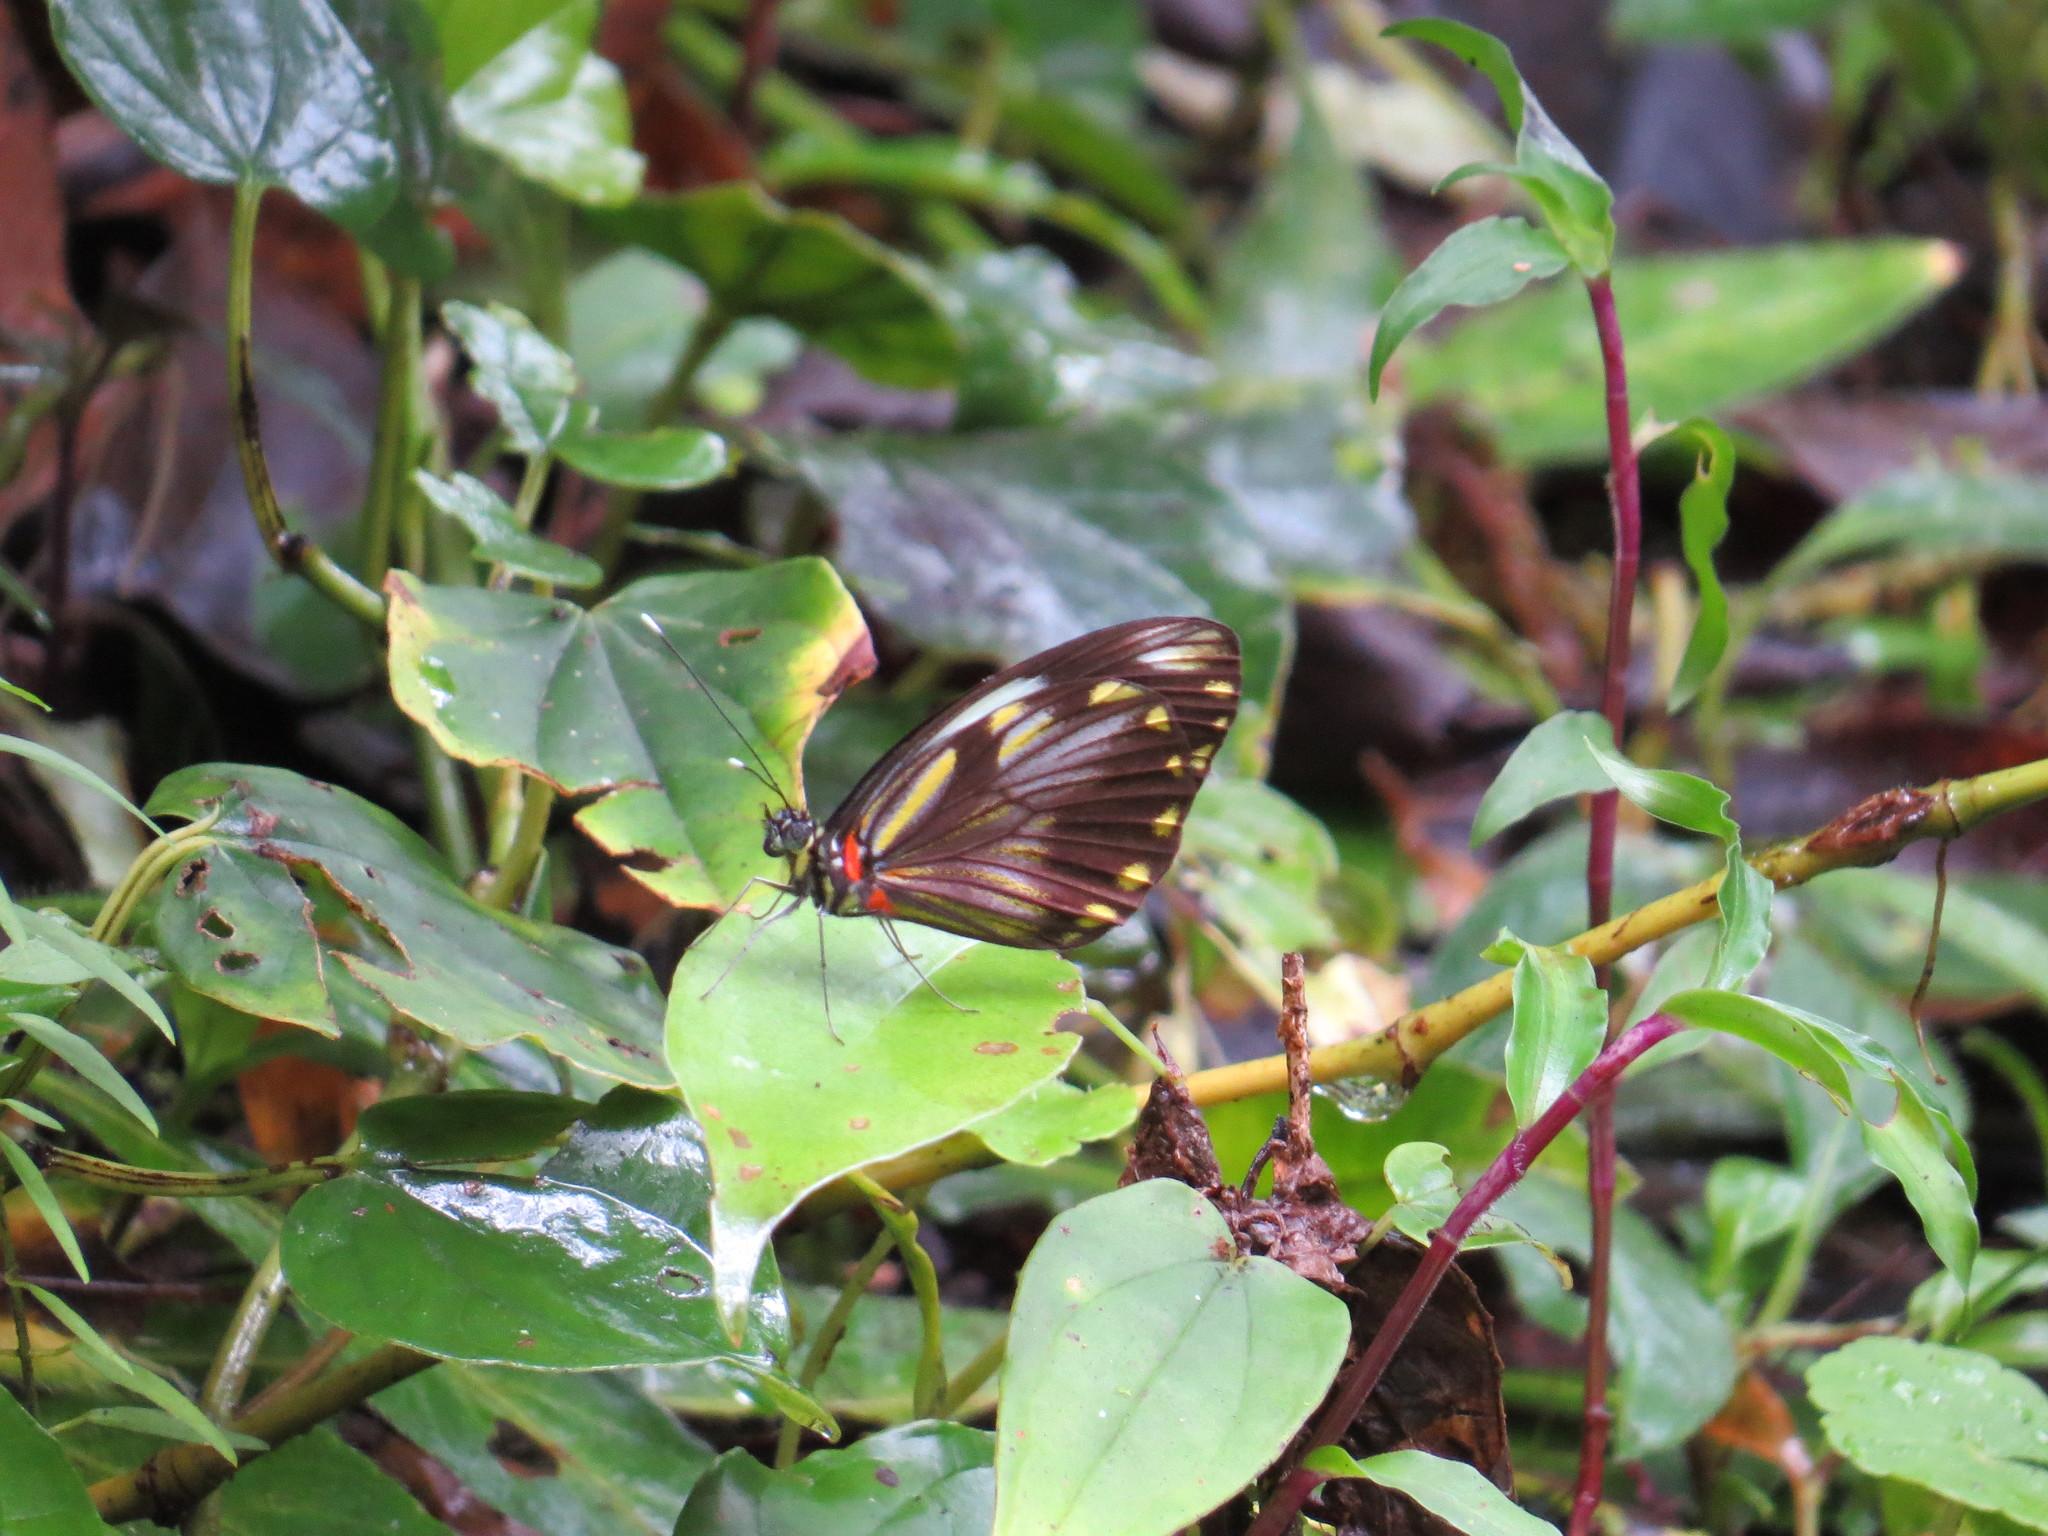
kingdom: Animalia
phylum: Arthropoda
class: Insecta
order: Lepidoptera
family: Pieridae
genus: Pieriballia
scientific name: Pieriballia viardi
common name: Painted white
